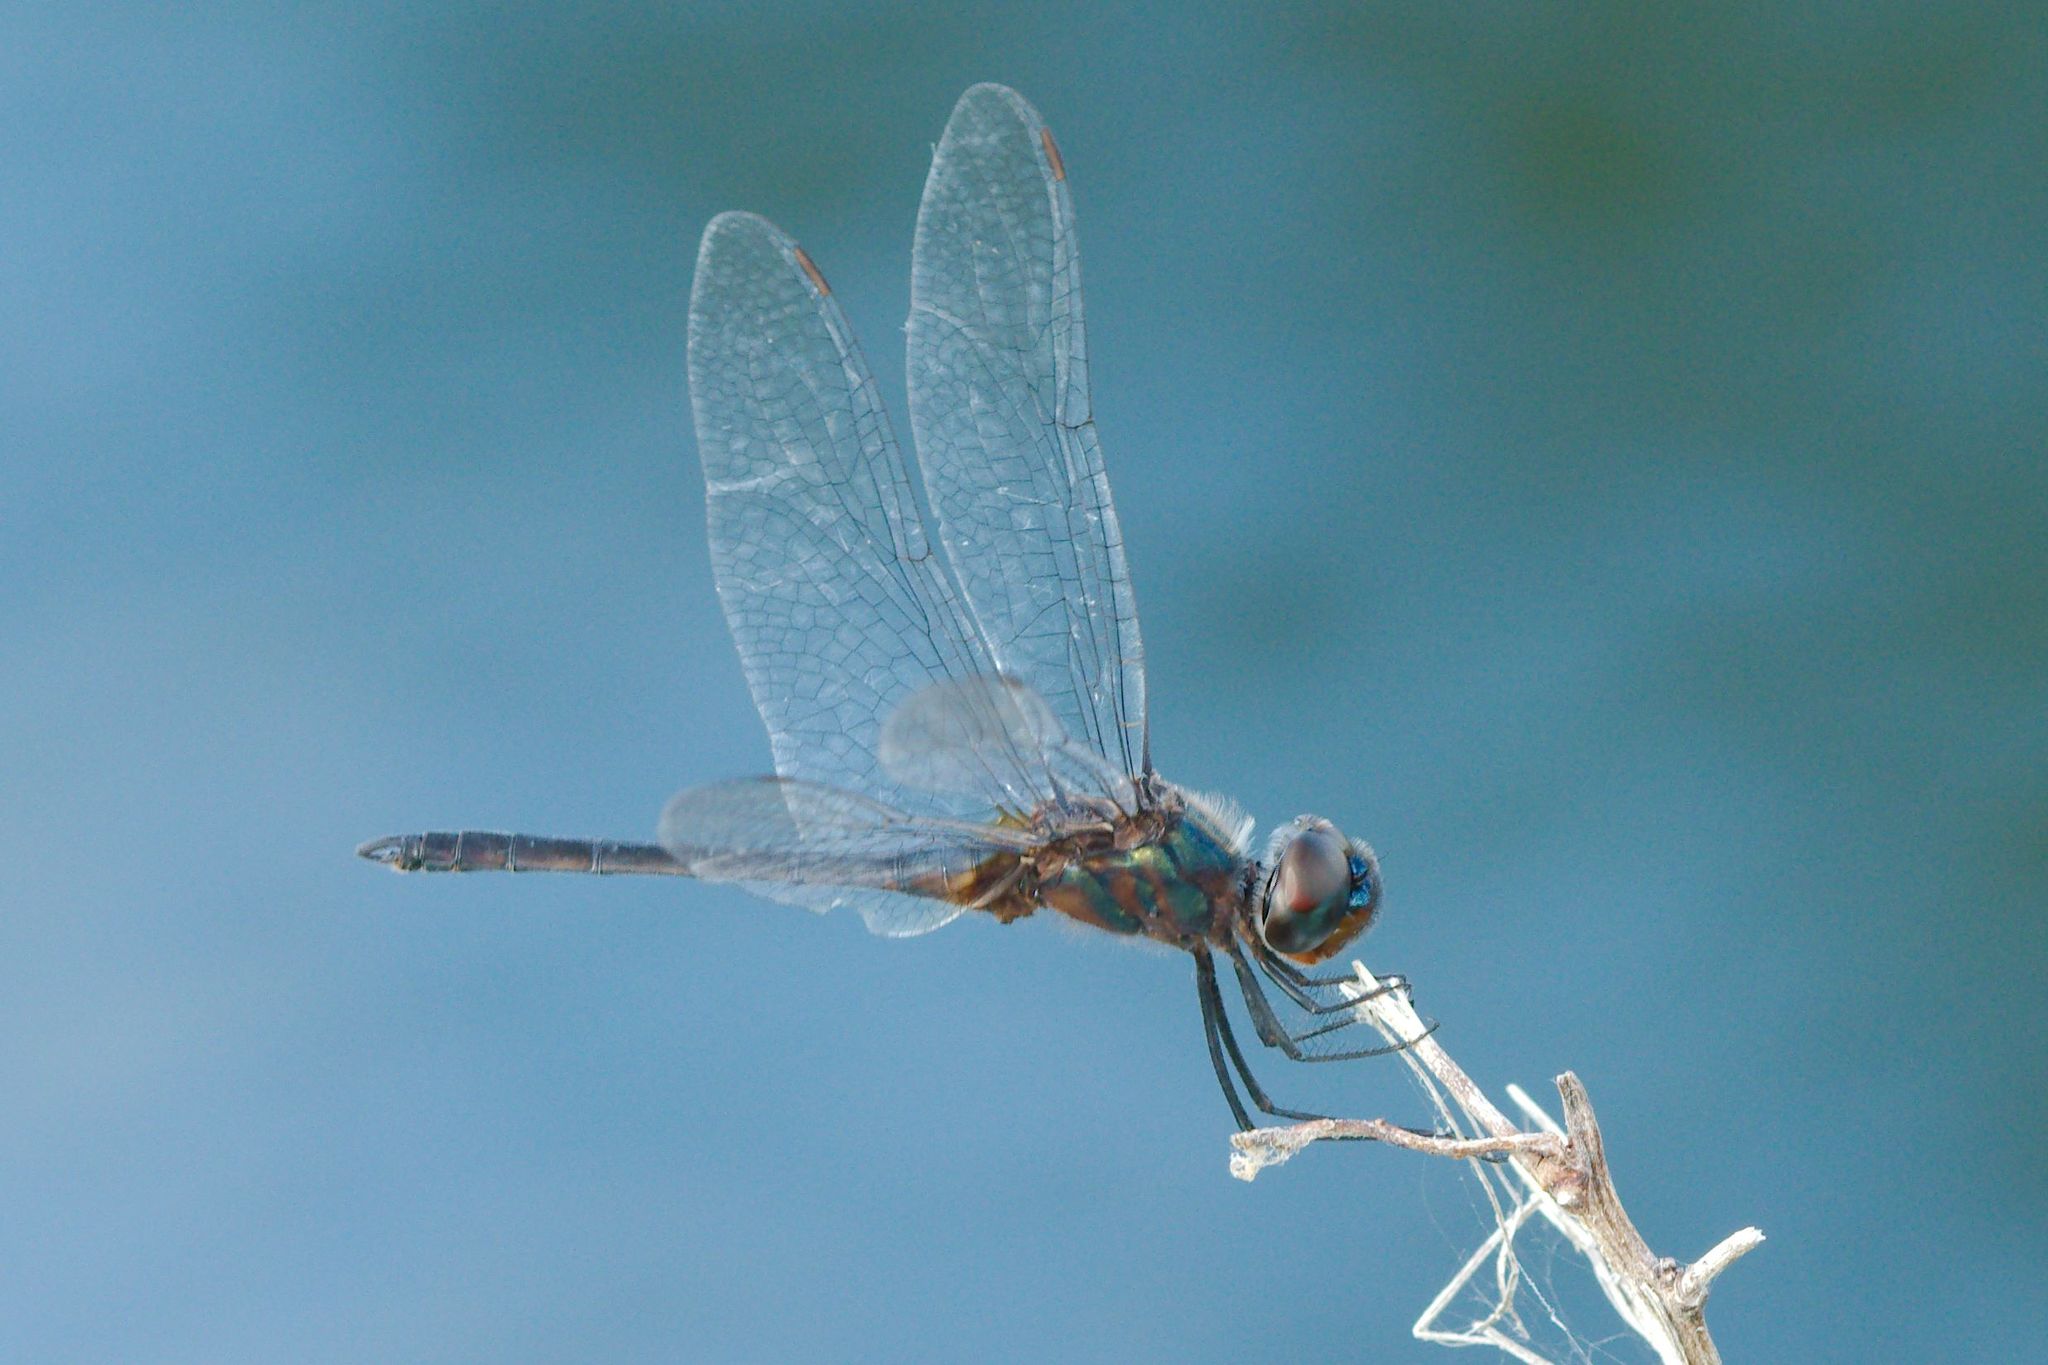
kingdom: Animalia
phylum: Arthropoda
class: Insecta
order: Odonata
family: Libellulidae
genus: Idiataphe
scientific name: Idiataphe cubensis
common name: Metallic pennant
